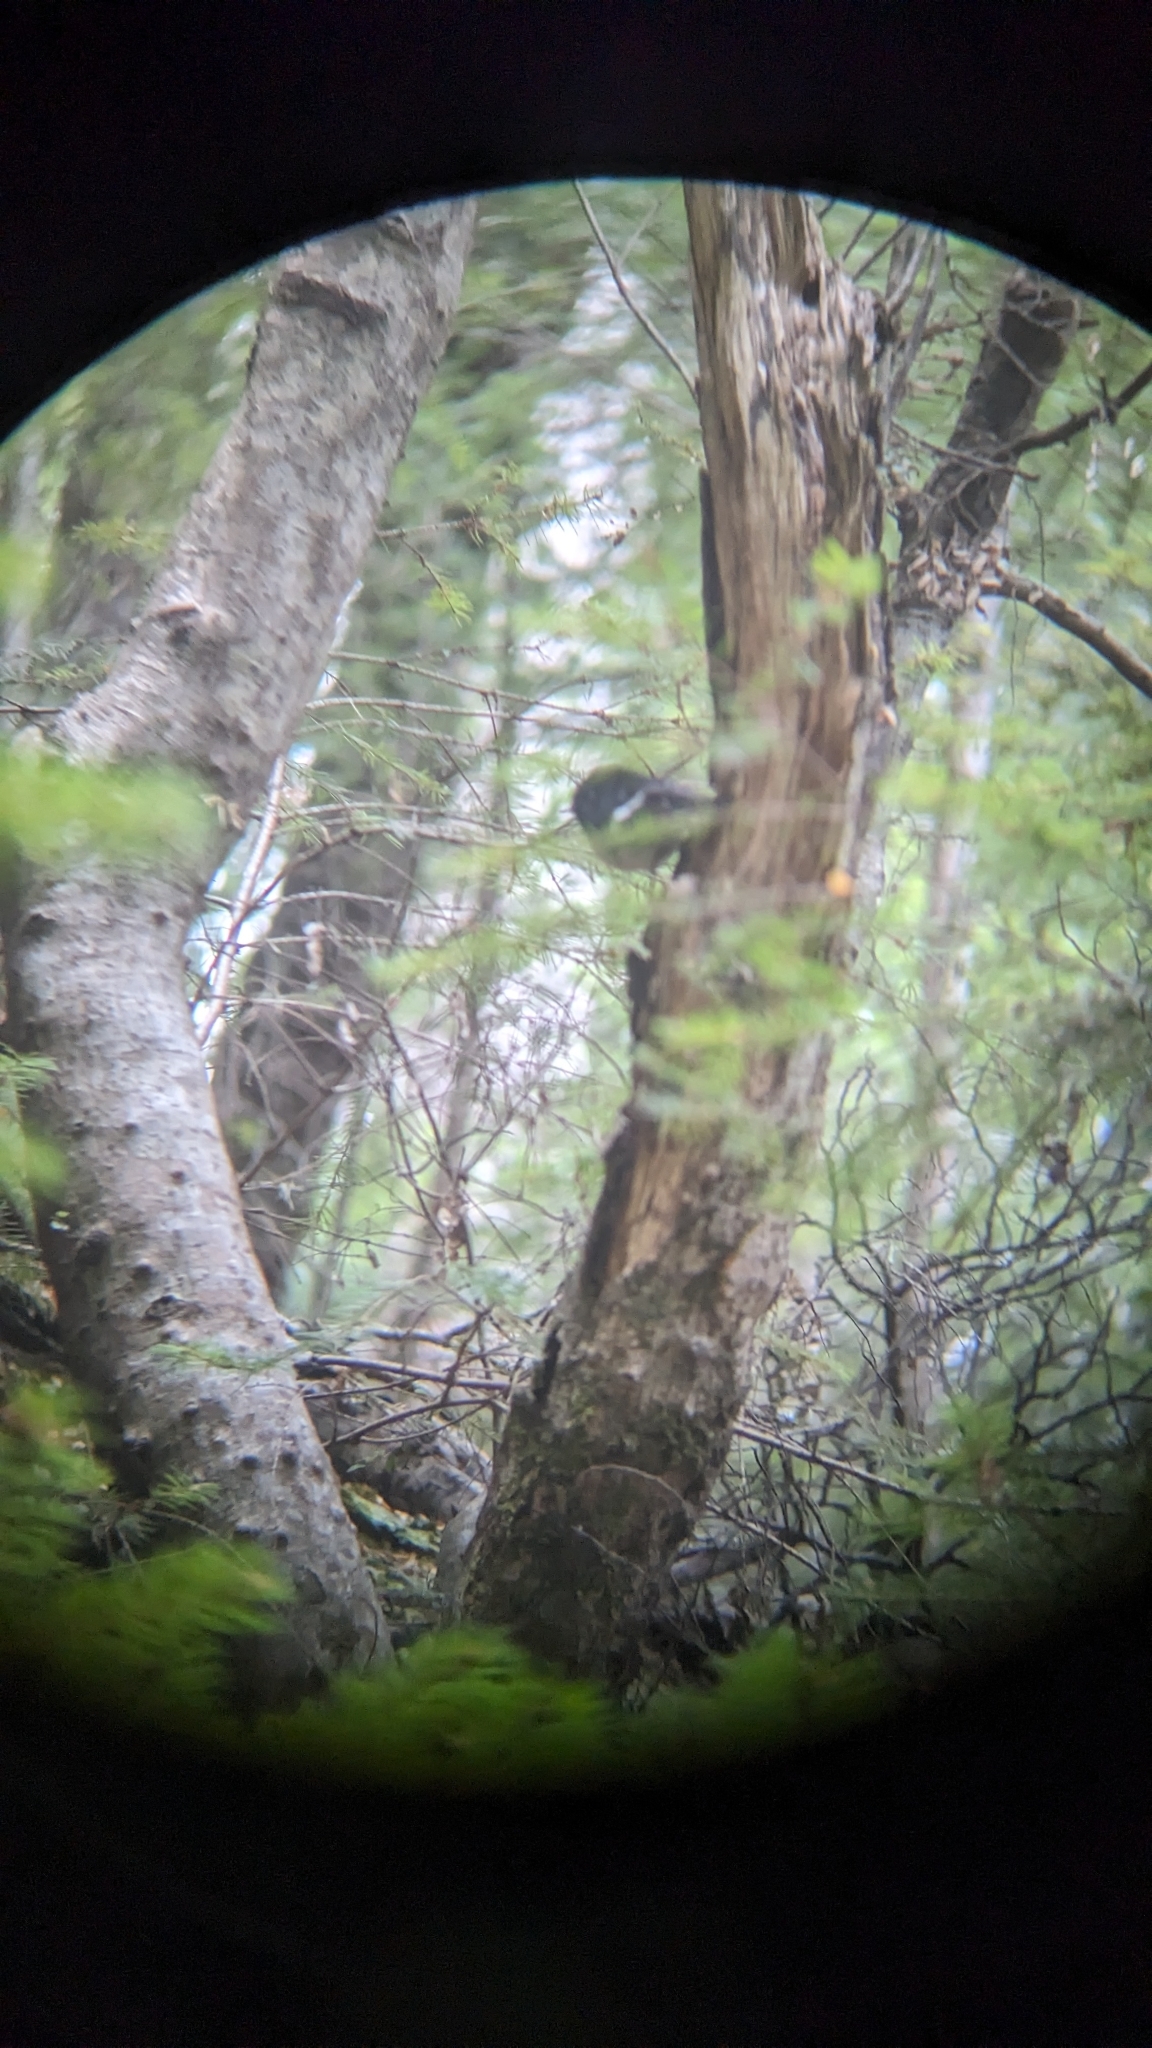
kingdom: Animalia
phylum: Chordata
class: Aves
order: Passeriformes
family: Petroicidae
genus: Petroica
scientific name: Petroica macrocephala
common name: Tomtit
